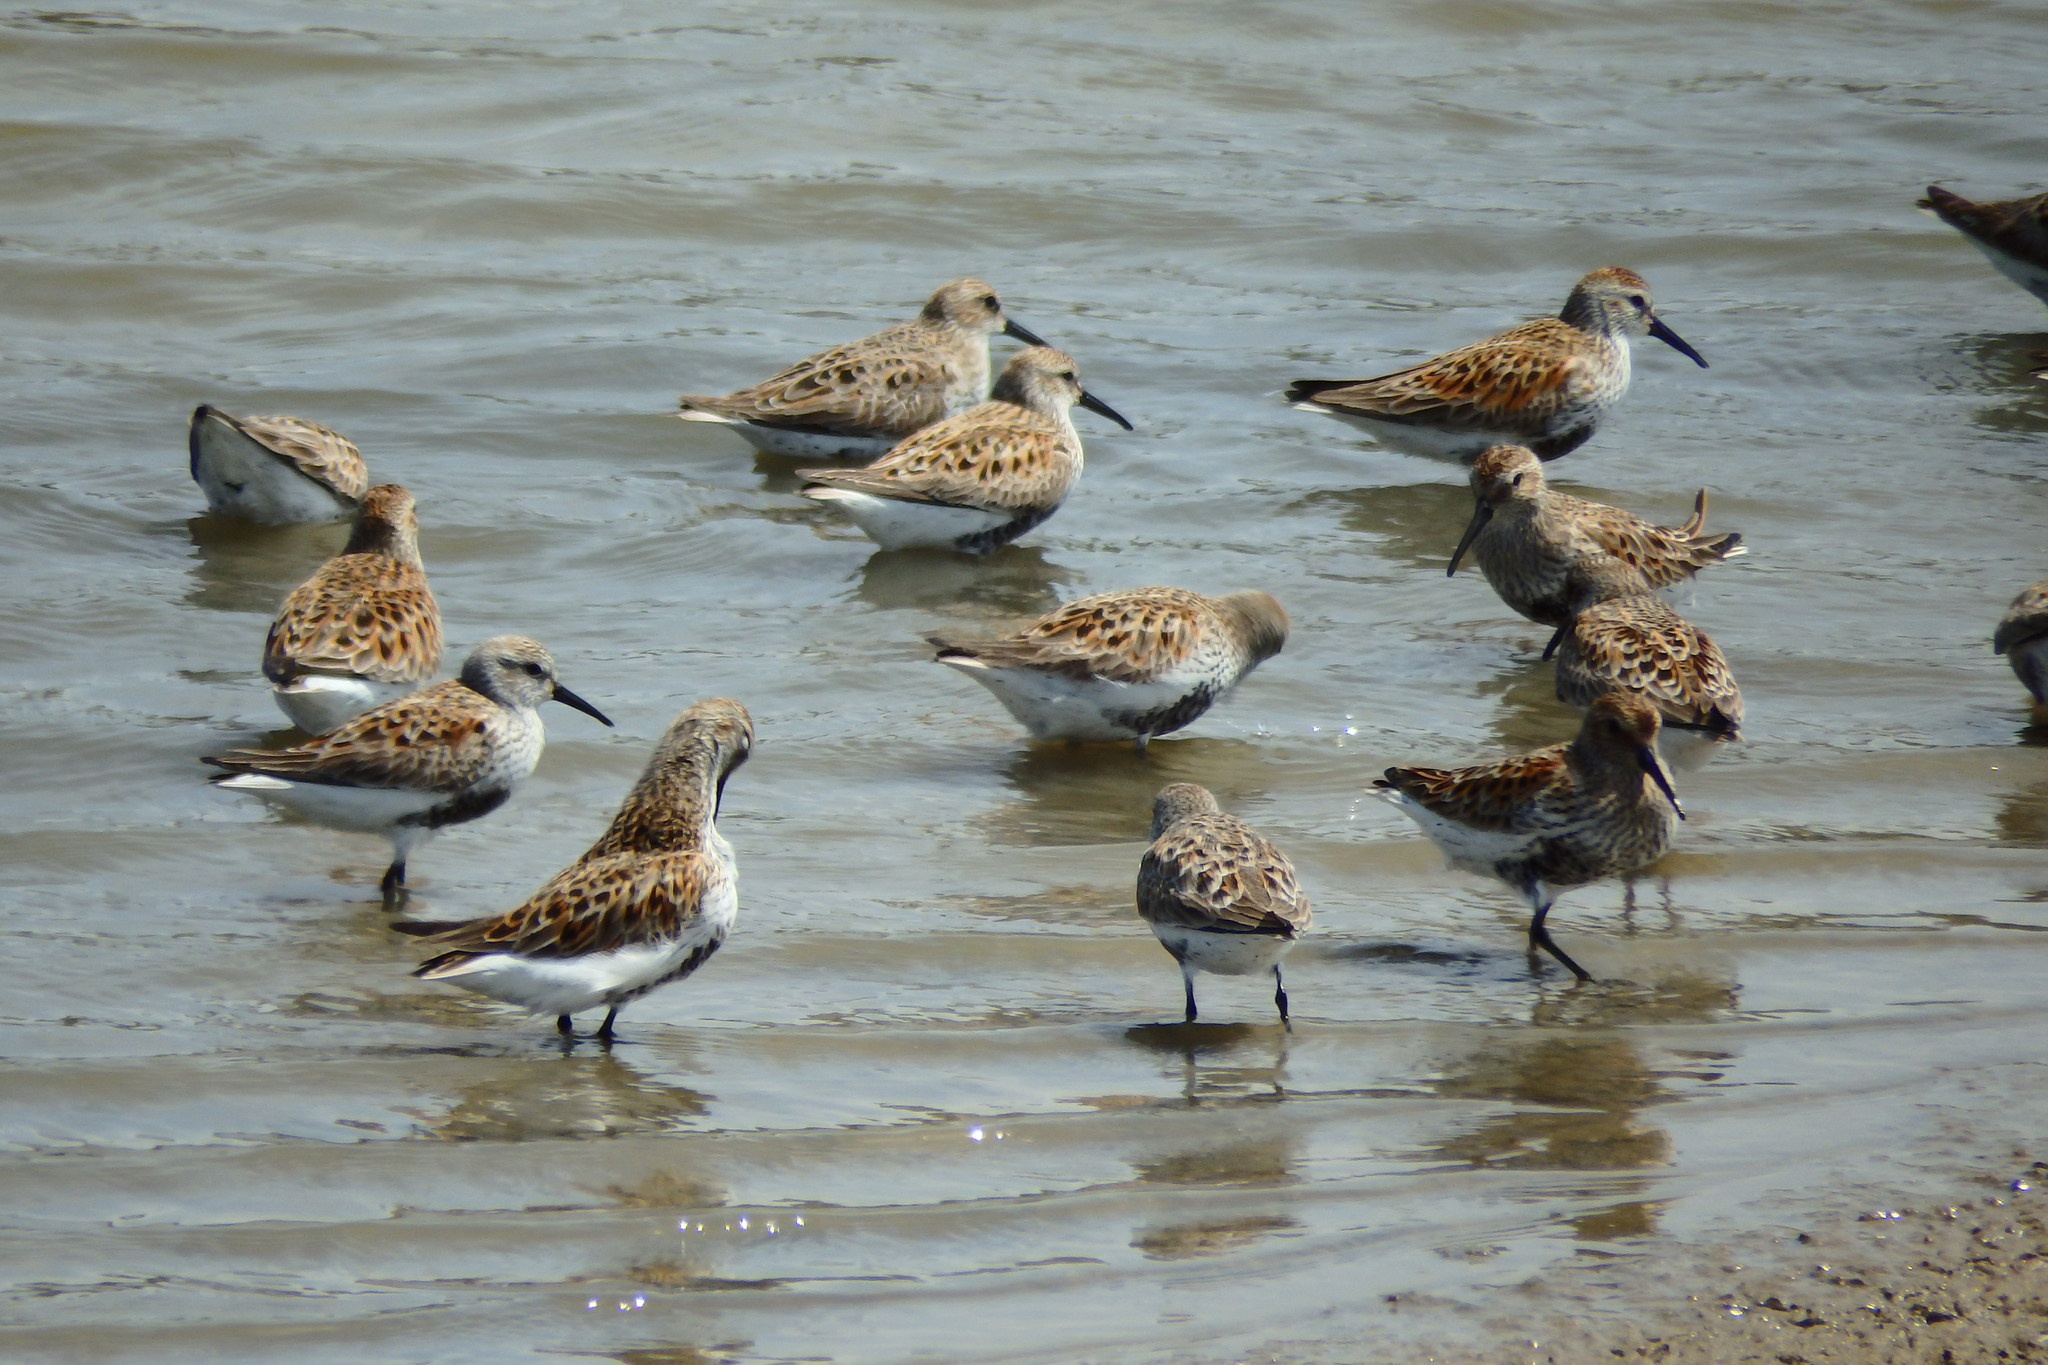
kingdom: Animalia
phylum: Chordata
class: Aves
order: Charadriiformes
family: Scolopacidae
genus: Calidris
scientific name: Calidris alpina
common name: Dunlin
